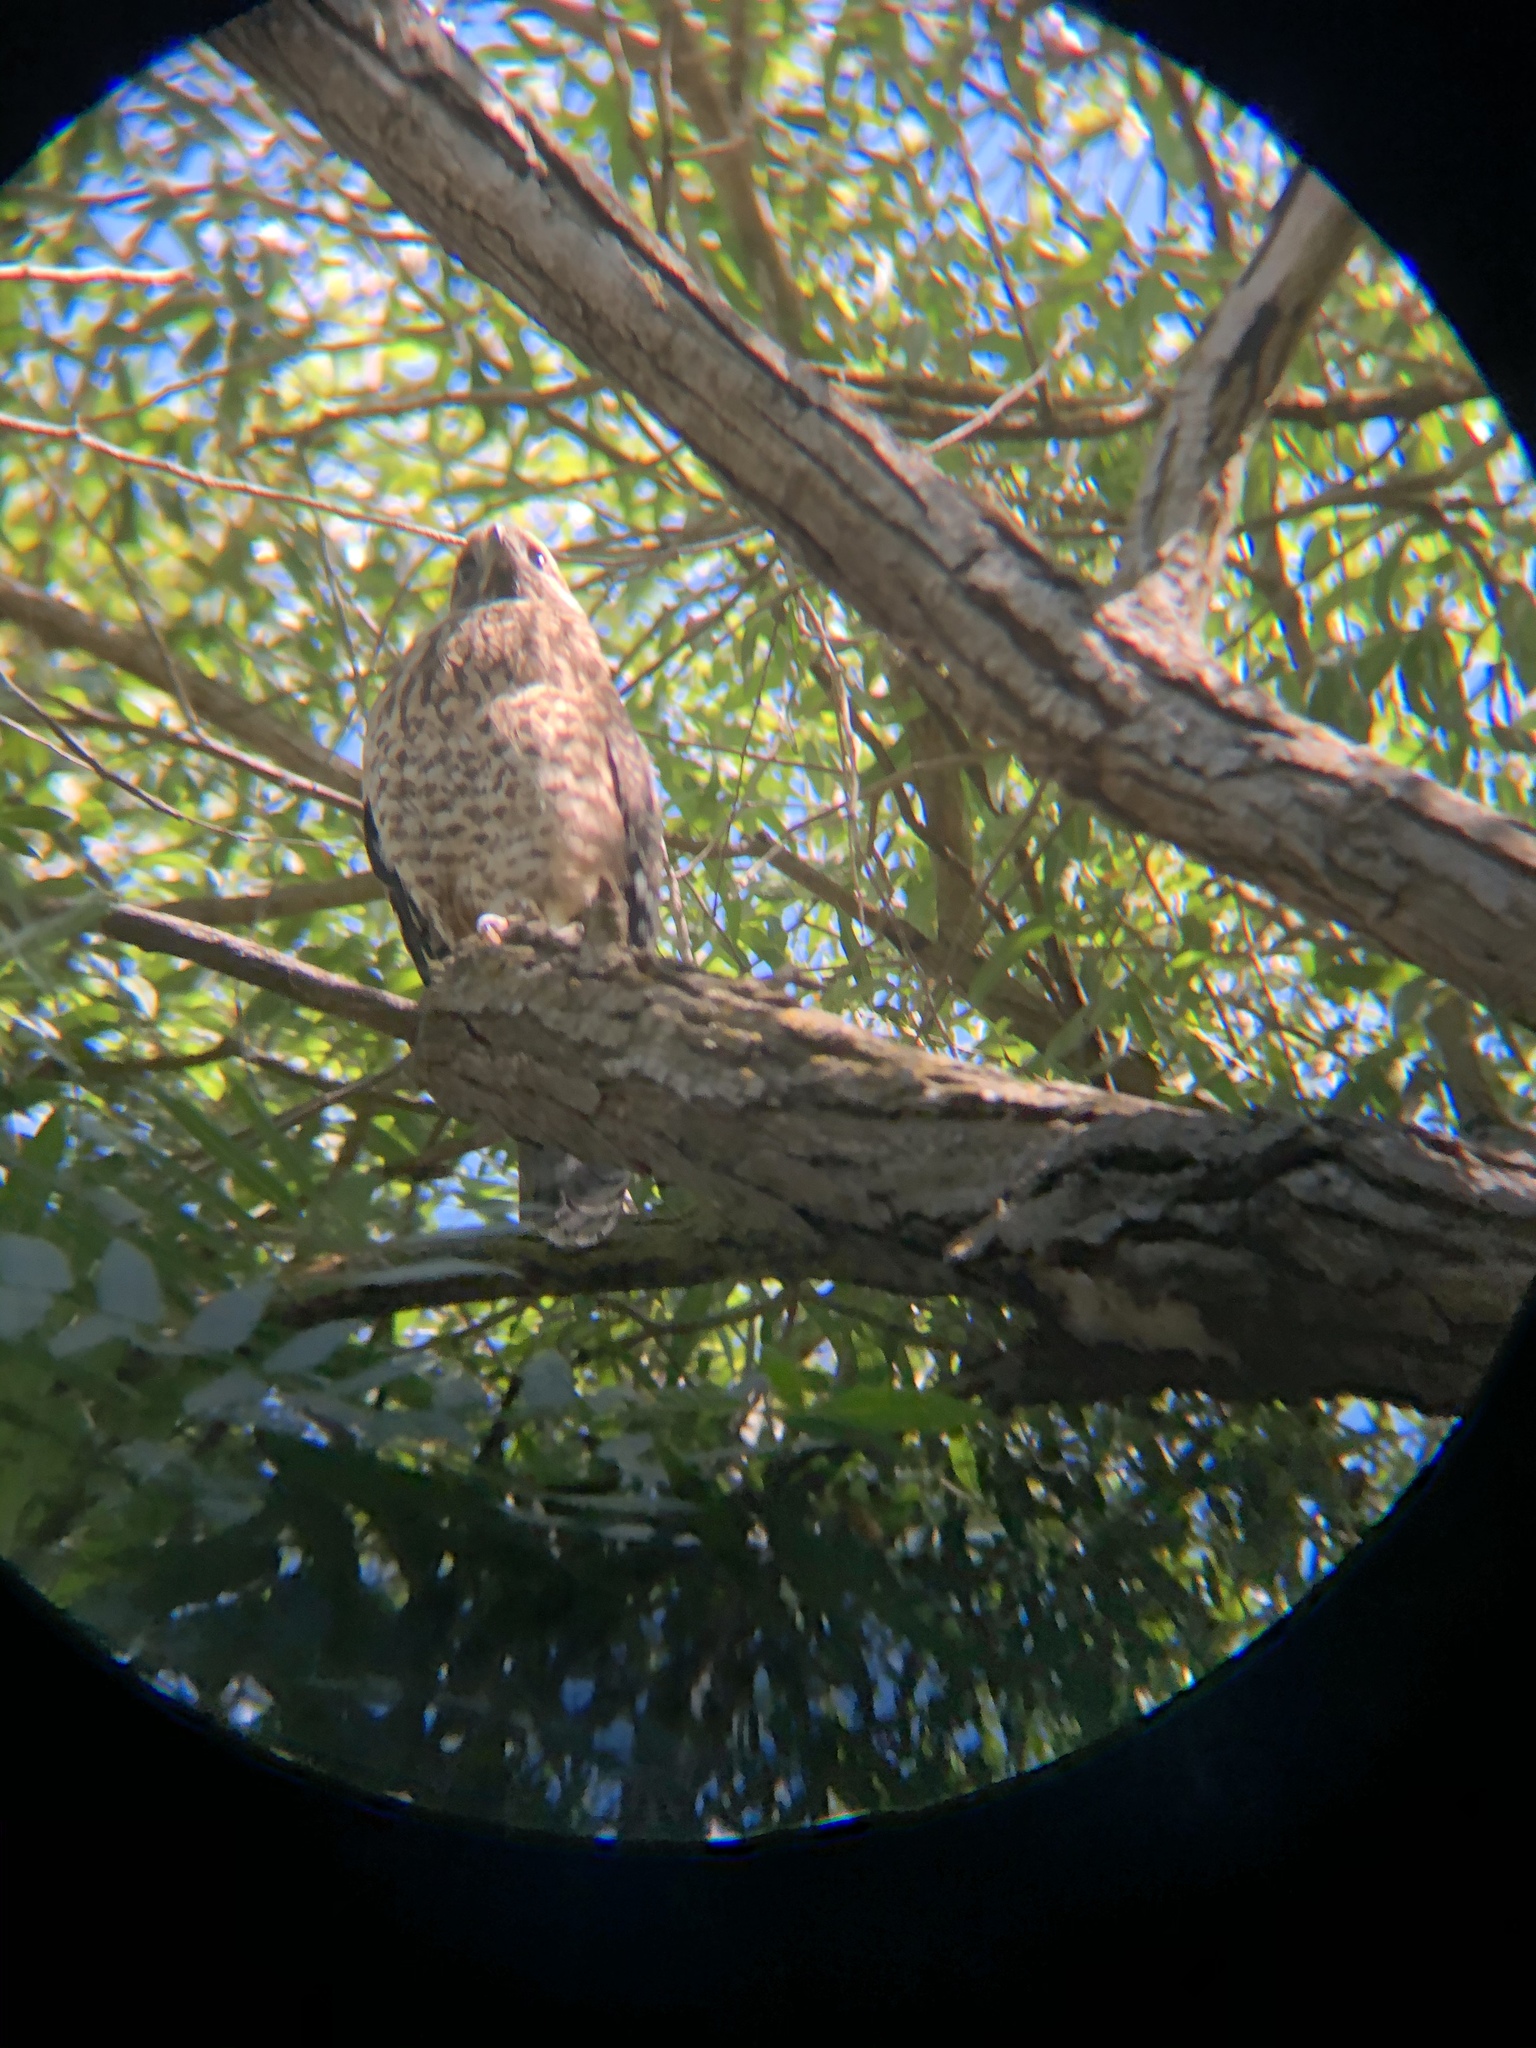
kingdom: Animalia
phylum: Chordata
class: Aves
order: Accipitriformes
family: Accipitridae
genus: Buteo
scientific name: Buteo lineatus
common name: Red-shouldered hawk
